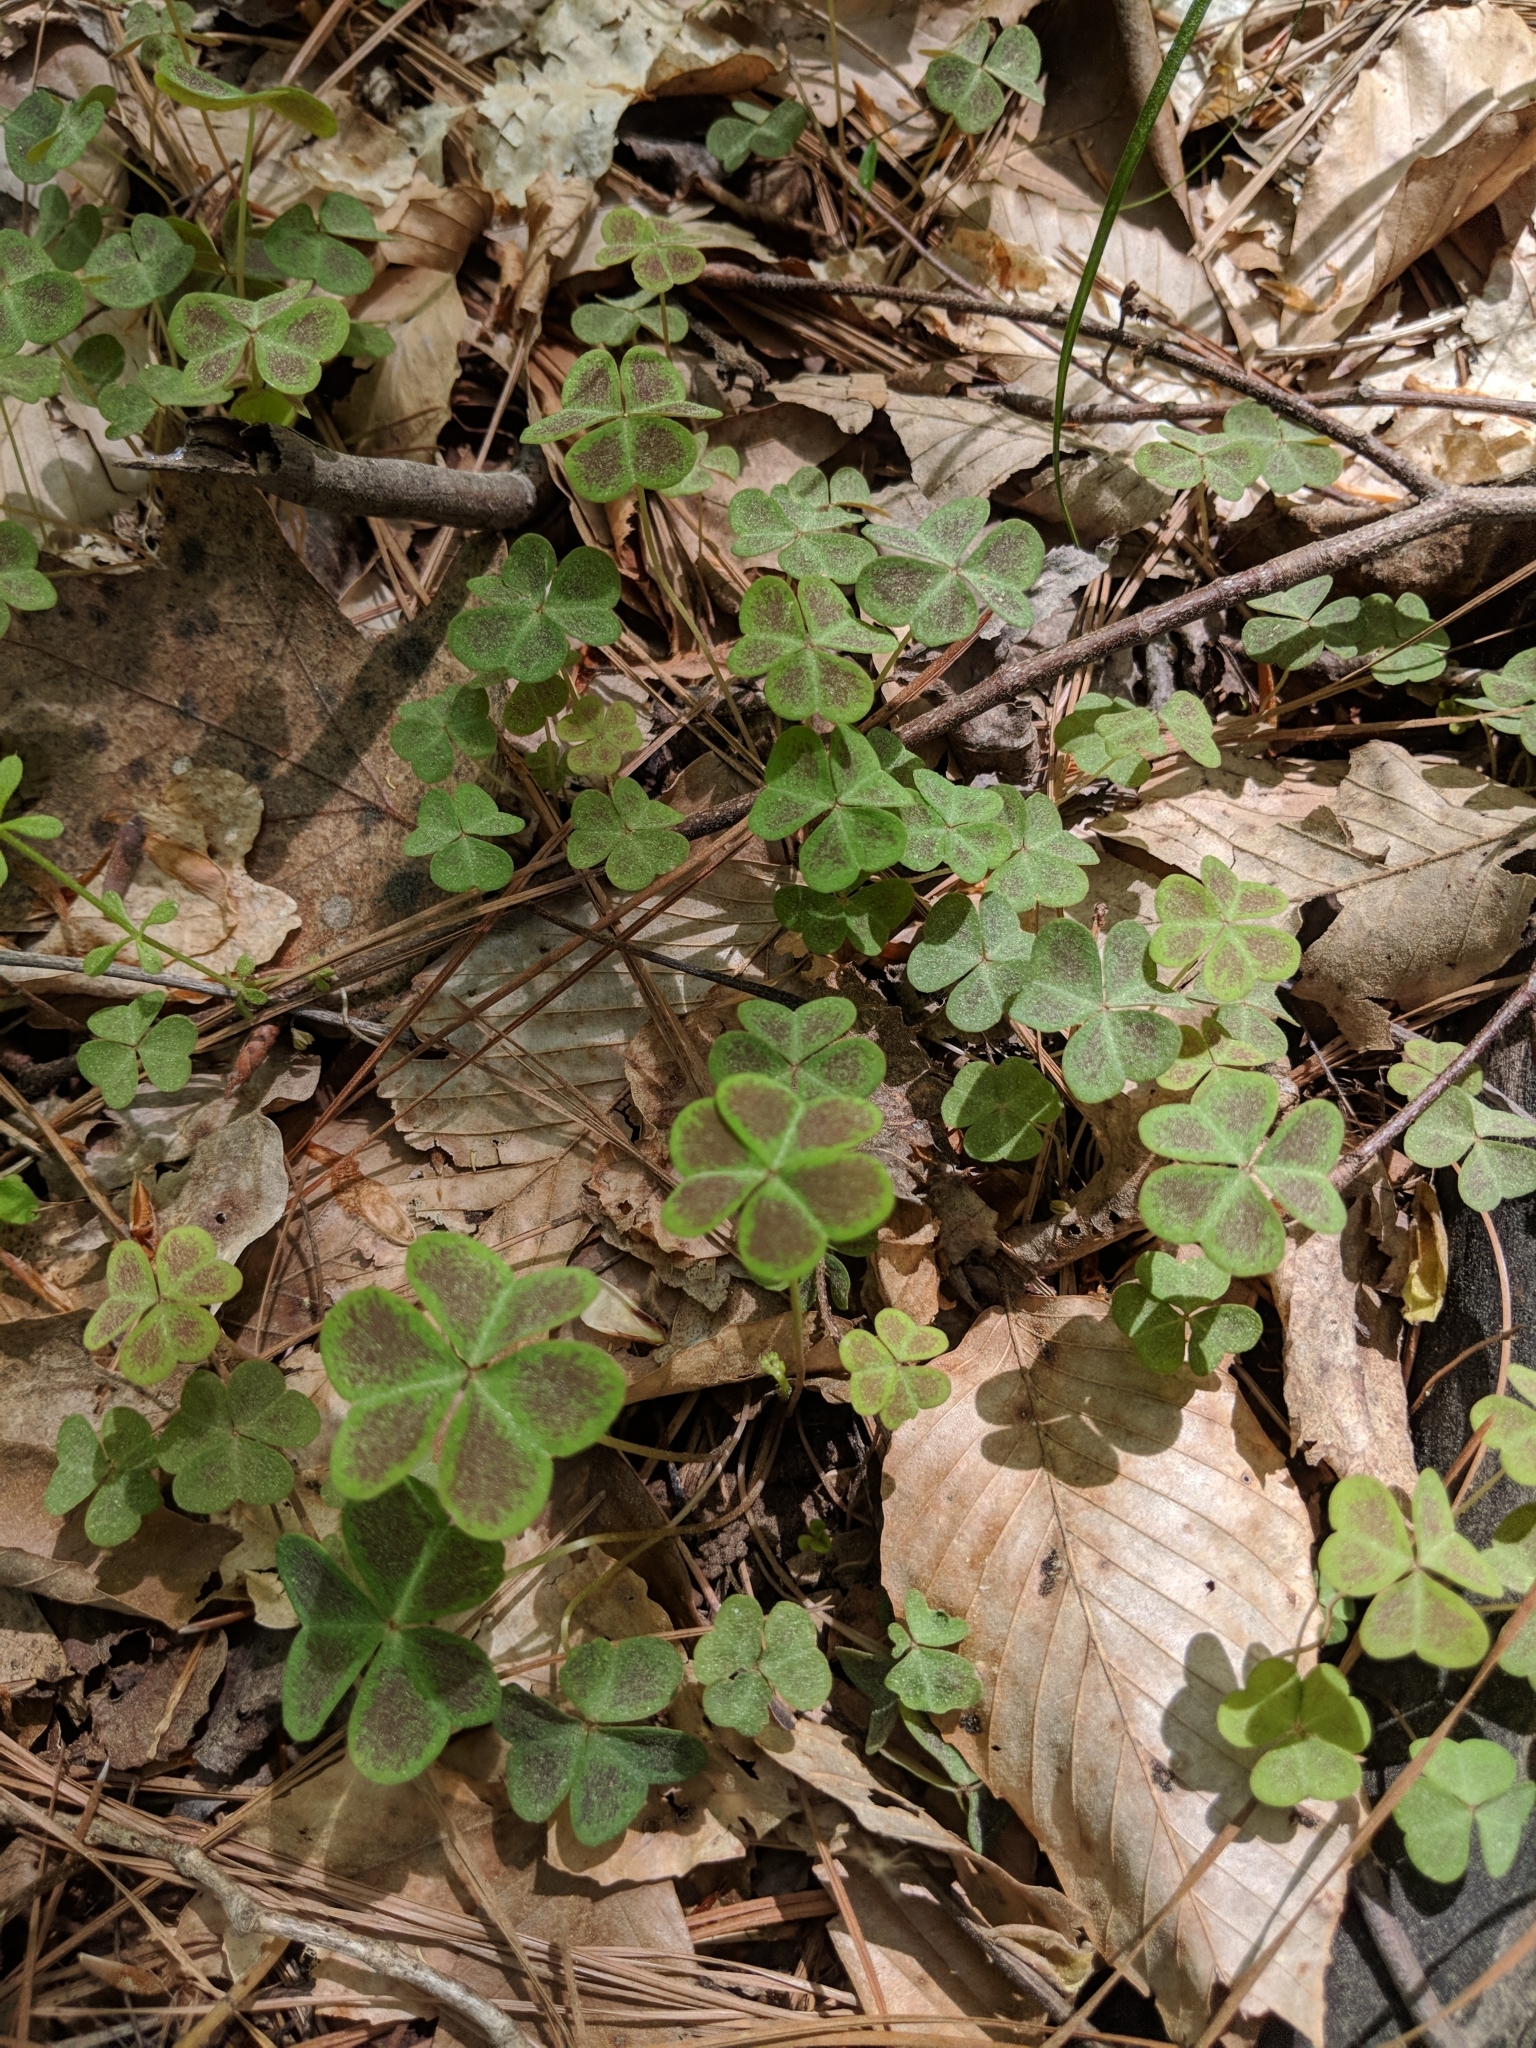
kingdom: Plantae
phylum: Tracheophyta
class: Magnoliopsida
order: Oxalidales
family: Oxalidaceae
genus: Oxalis
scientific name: Oxalis violacea
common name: Violet wood-sorrel
